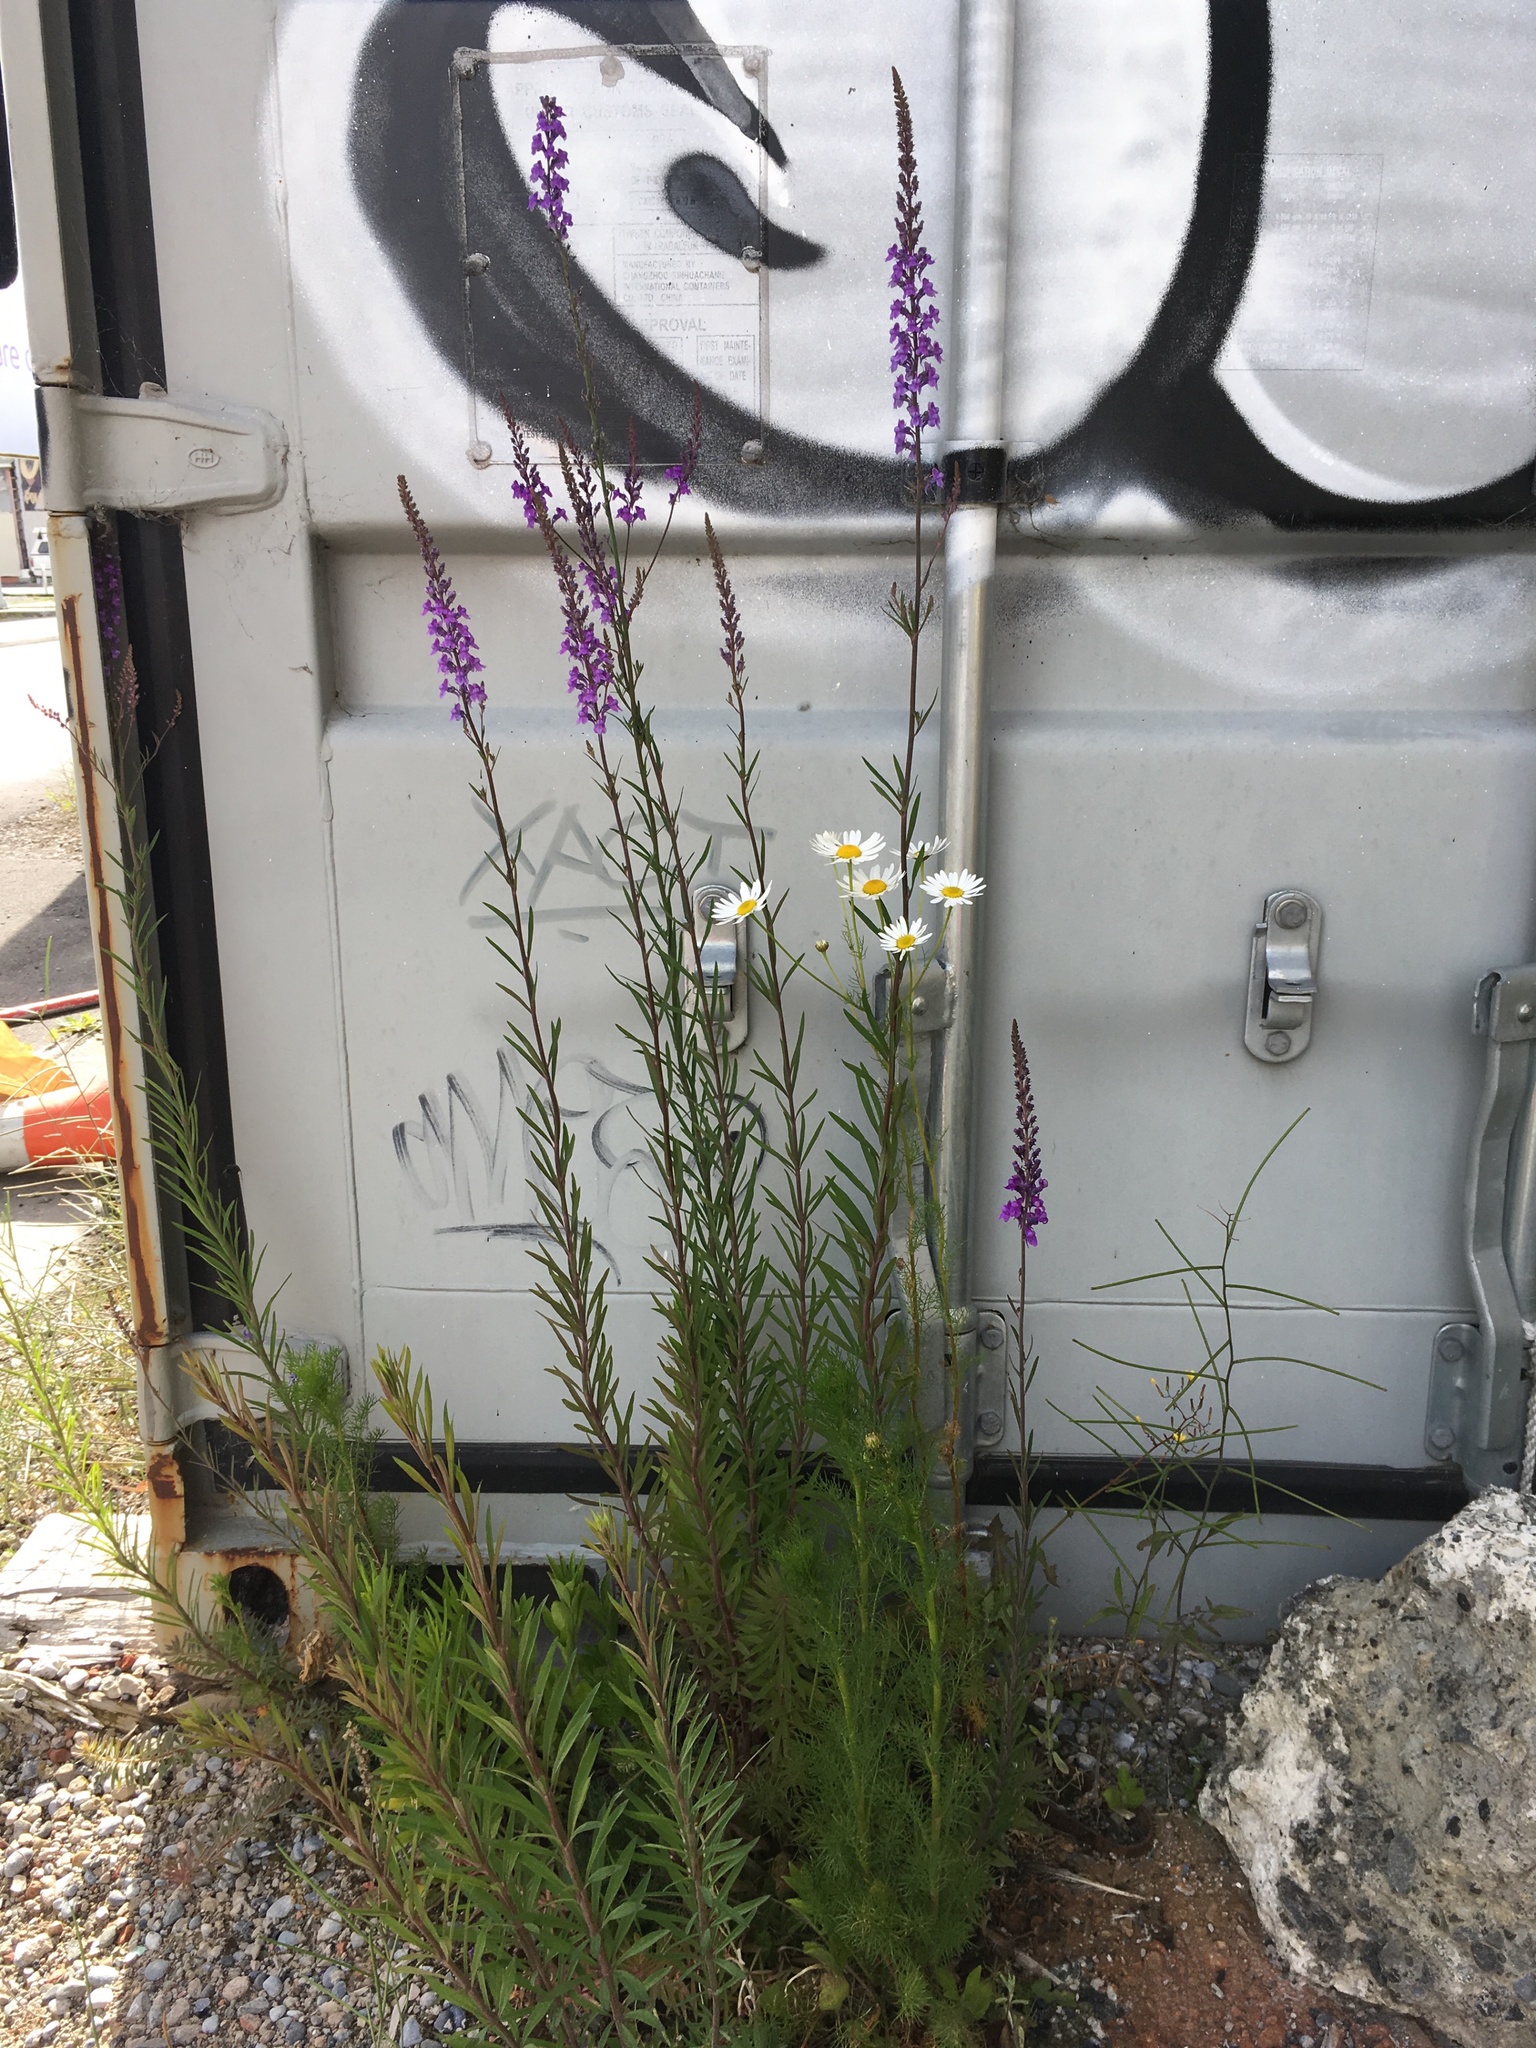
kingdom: Plantae
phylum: Tracheophyta
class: Magnoliopsida
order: Lamiales
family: Plantaginaceae
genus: Linaria
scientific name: Linaria purpurea
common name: Purple toadflax
